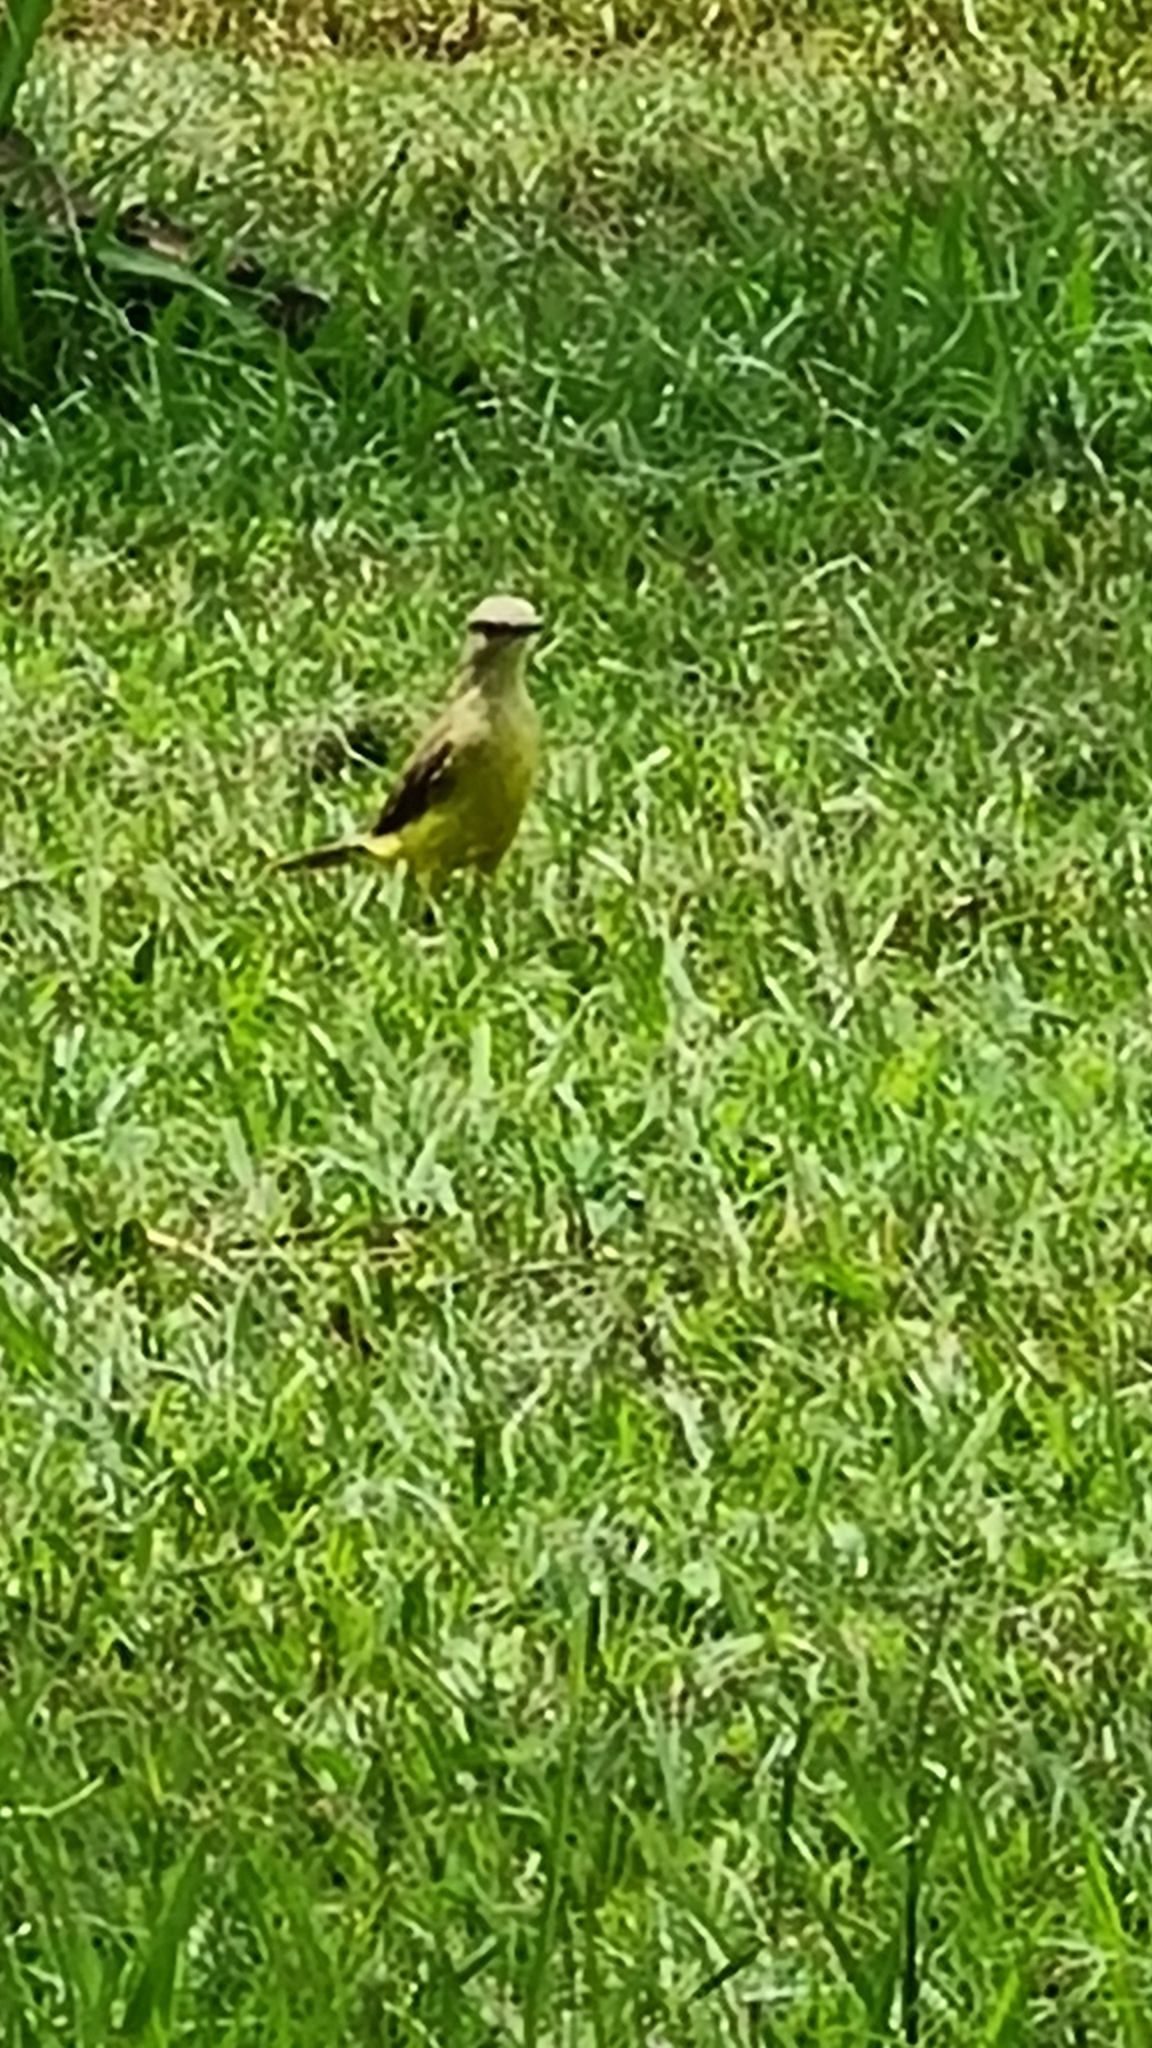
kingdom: Animalia
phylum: Chordata
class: Aves
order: Passeriformes
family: Tyrannidae
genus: Machetornis
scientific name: Machetornis rixosa
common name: Cattle tyrant
